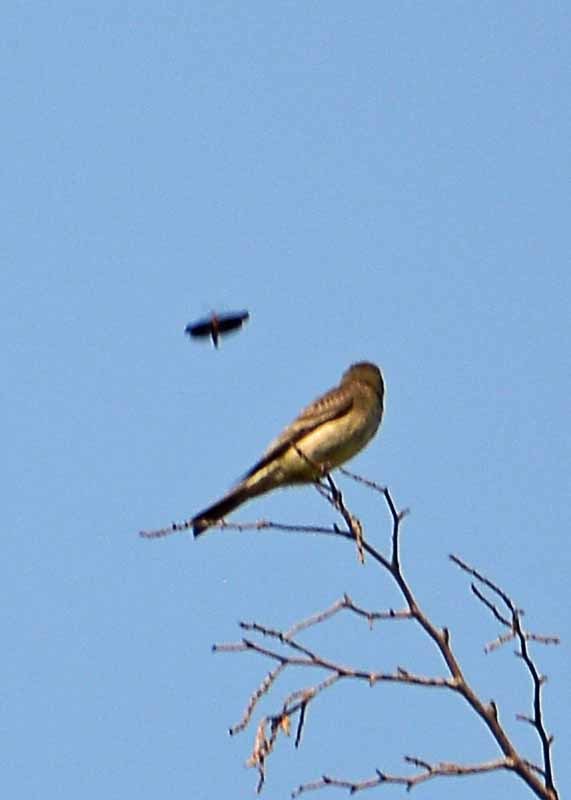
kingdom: Animalia
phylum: Chordata
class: Aves
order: Passeriformes
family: Tyrannidae
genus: Contopus
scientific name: Contopus sordidulus
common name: Western wood-pewee
